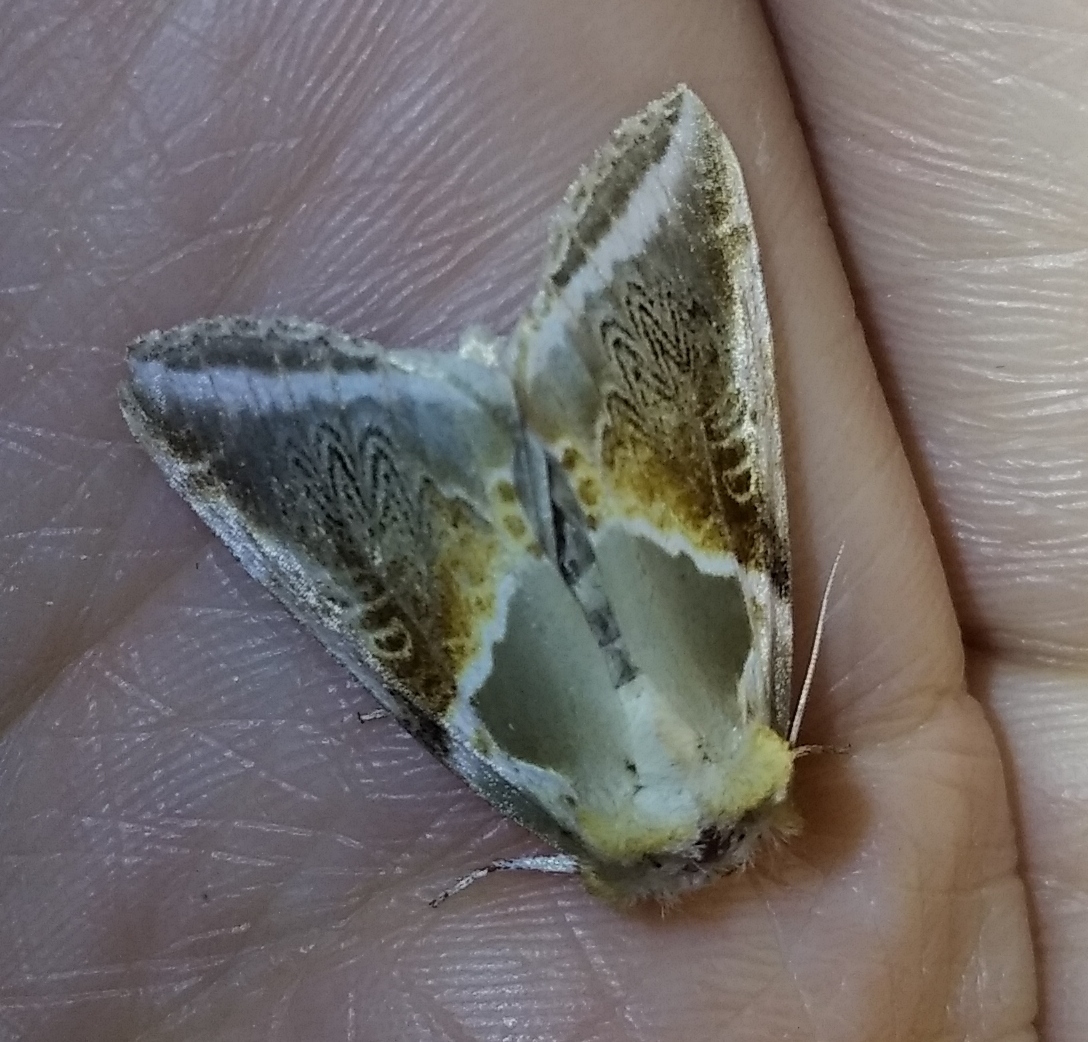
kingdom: Animalia
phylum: Arthropoda
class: Insecta
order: Lepidoptera
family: Drepanidae
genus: Habrosyne
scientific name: Habrosyne pyritoides
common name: Buff arches
